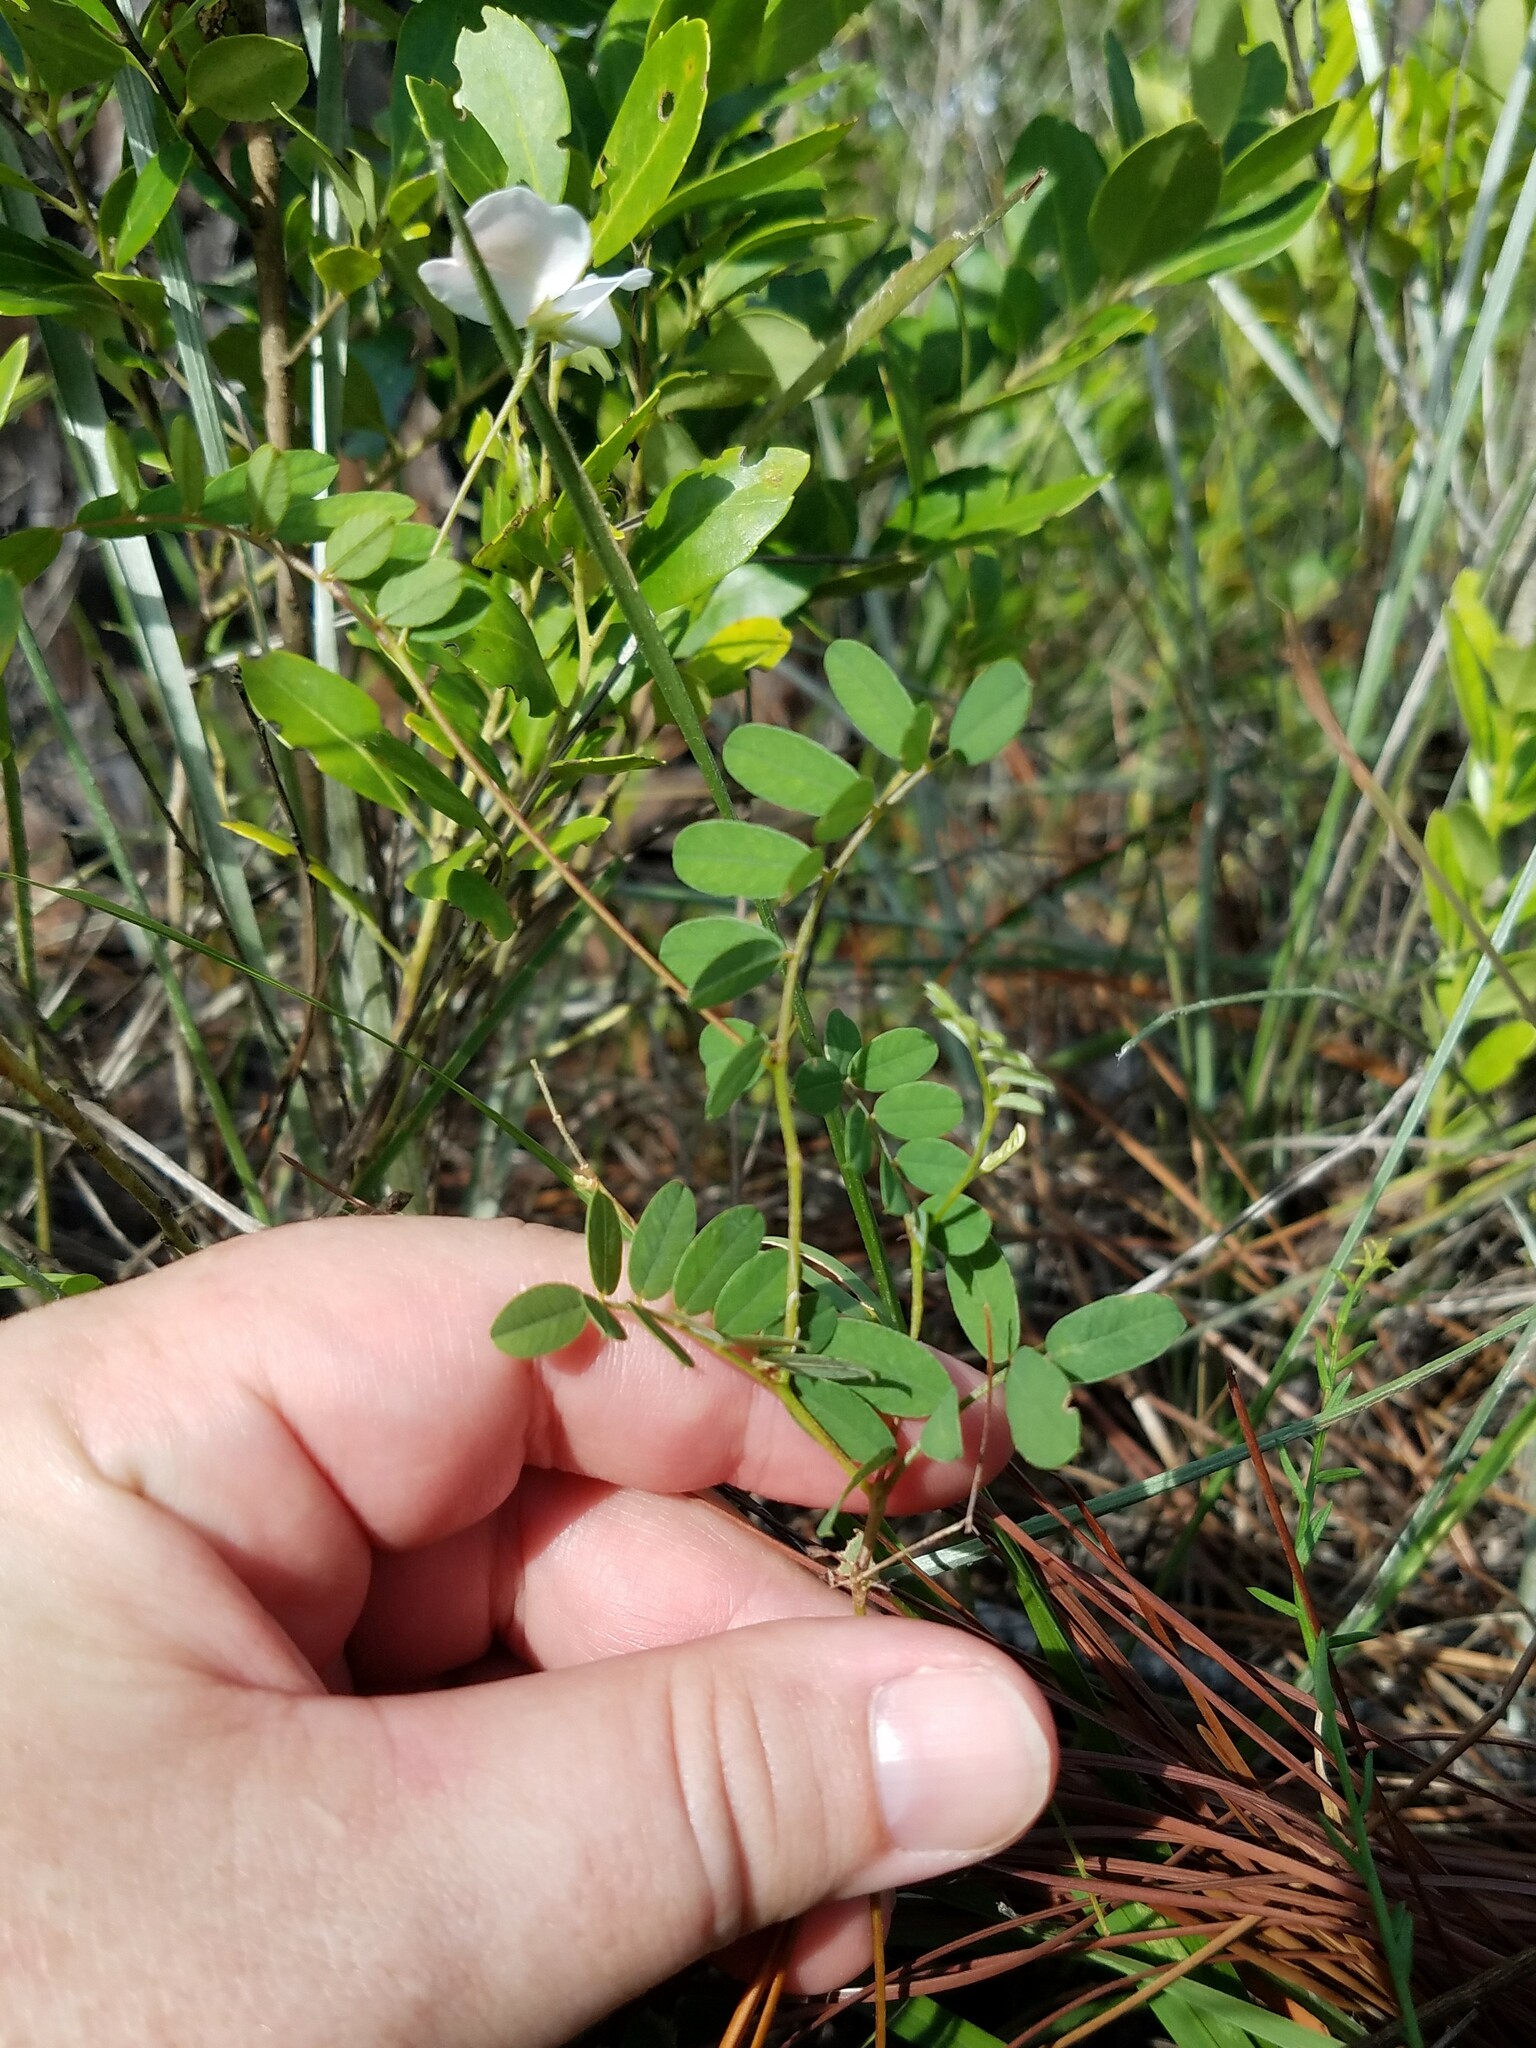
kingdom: Plantae
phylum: Tracheophyta
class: Magnoliopsida
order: Fabales
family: Fabaceae
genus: Galactia
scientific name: Galactia elliottii
